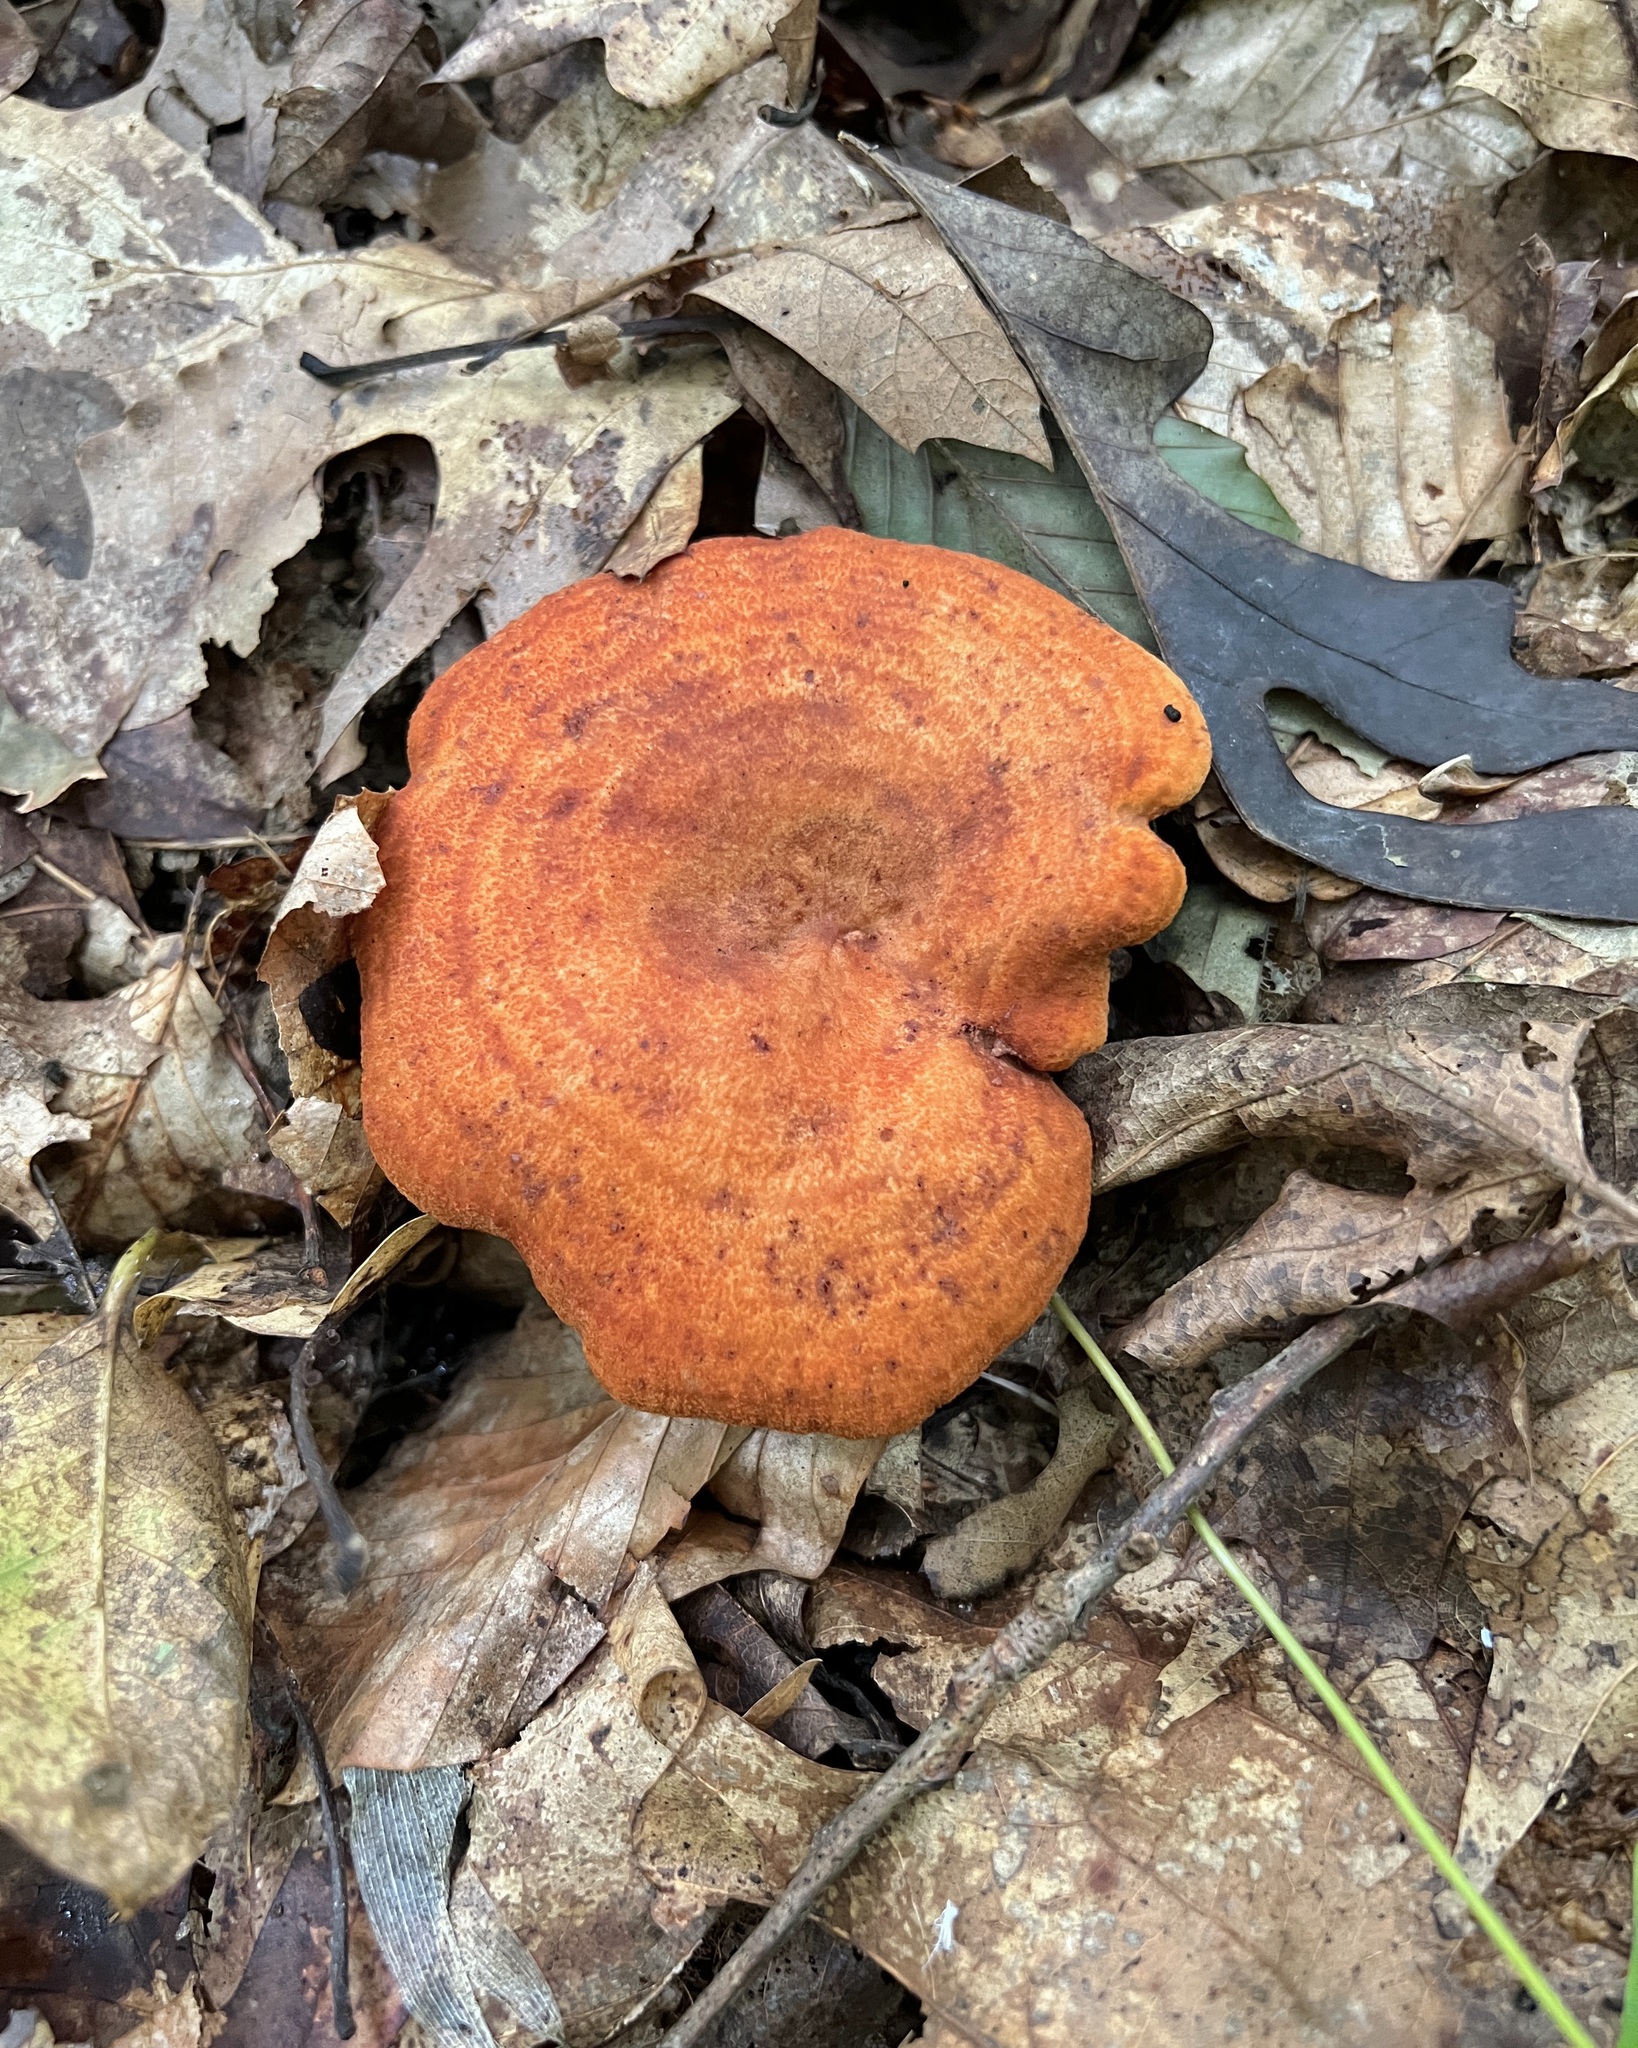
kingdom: Fungi
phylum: Basidiomycota
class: Agaricomycetes
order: Russulales
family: Russulaceae
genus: Lactarius
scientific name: Lactarius peckii
